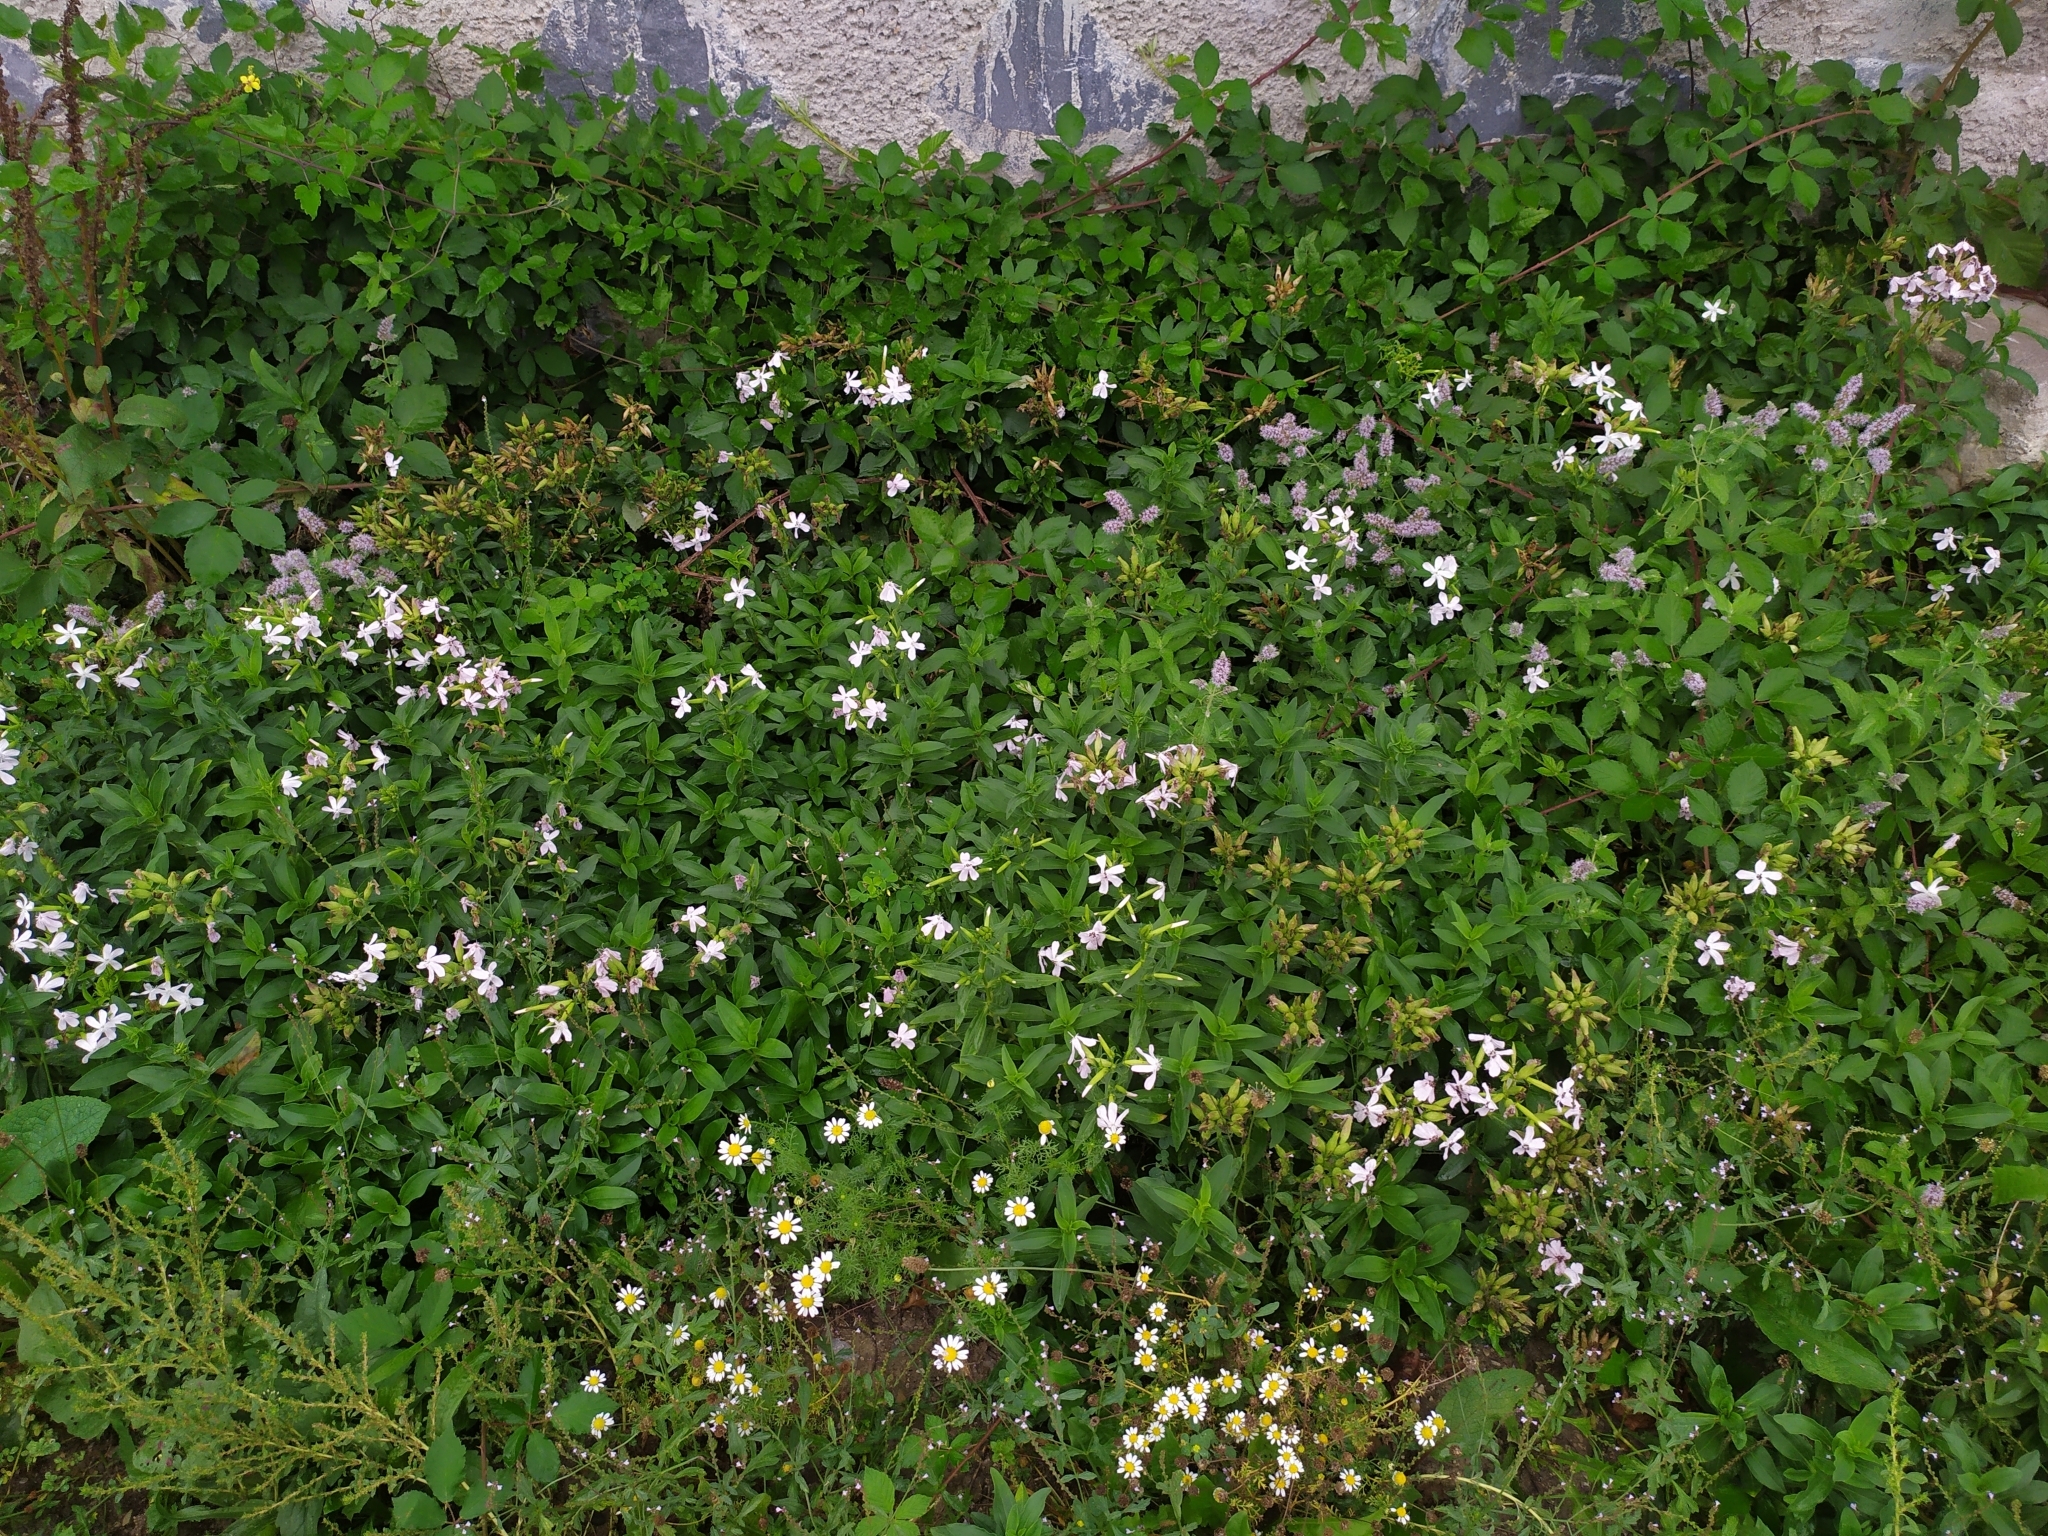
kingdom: Plantae
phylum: Tracheophyta
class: Magnoliopsida
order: Caryophyllales
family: Caryophyllaceae
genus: Saponaria
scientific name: Saponaria officinalis
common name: Soapwort
